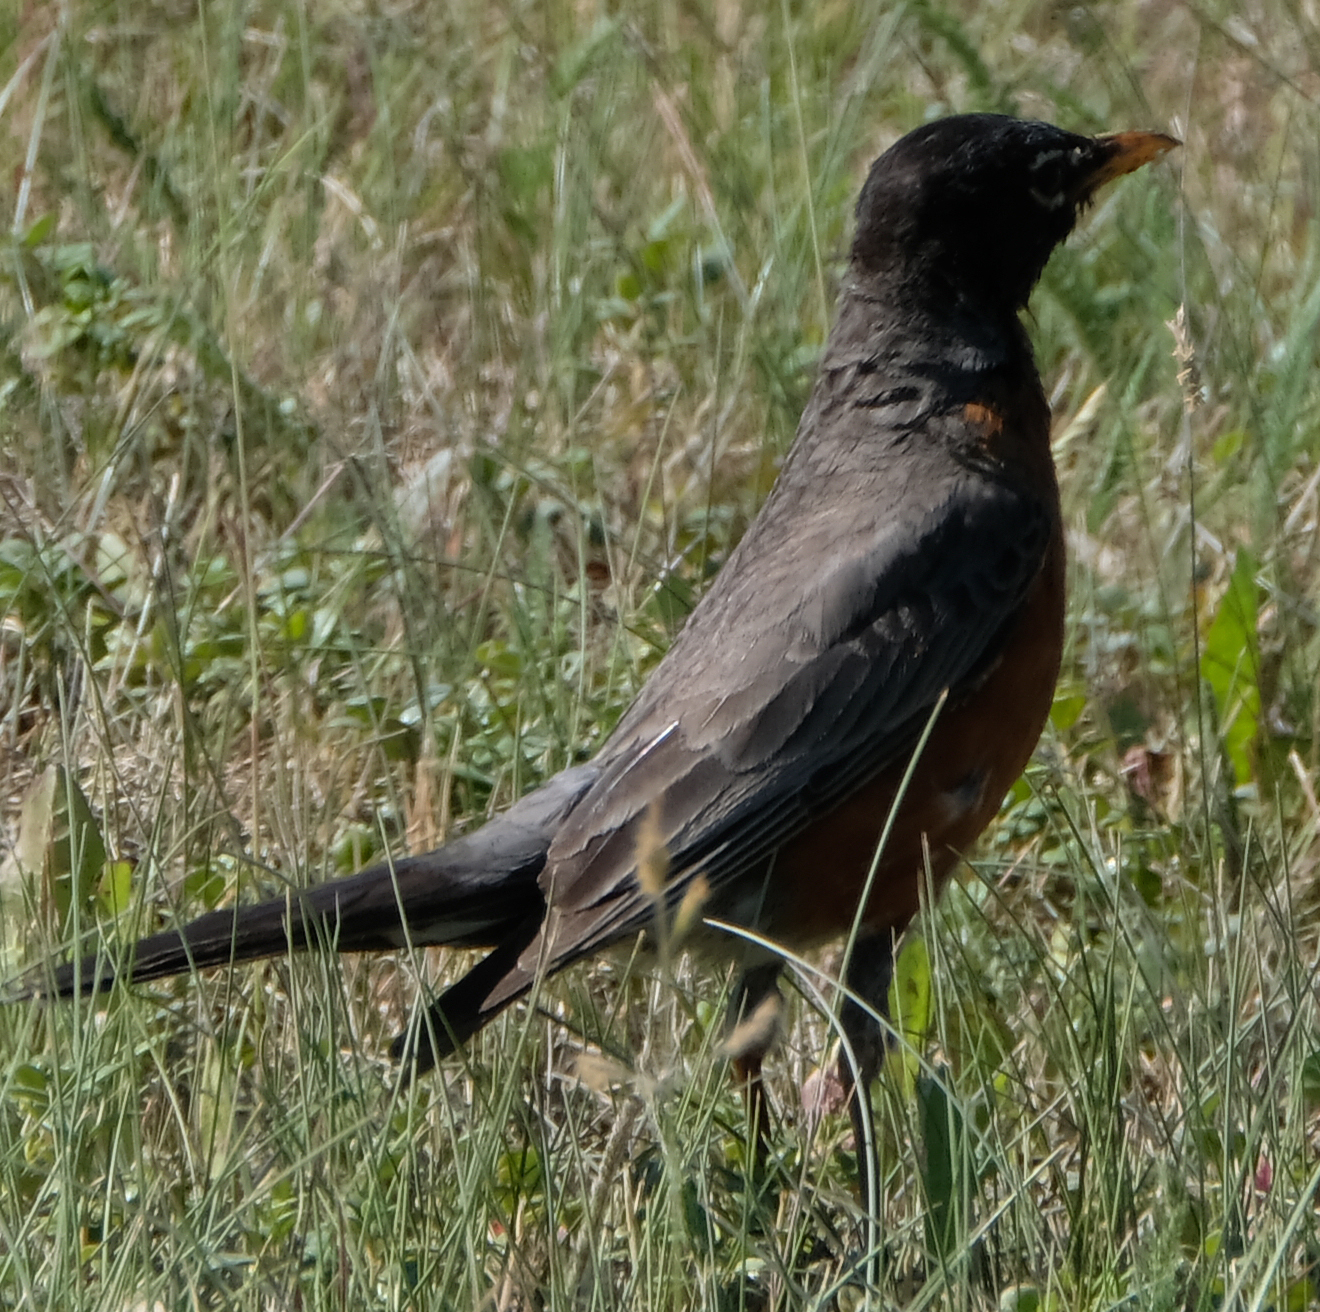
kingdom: Animalia
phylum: Chordata
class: Aves
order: Passeriformes
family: Turdidae
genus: Turdus
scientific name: Turdus migratorius
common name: American robin
